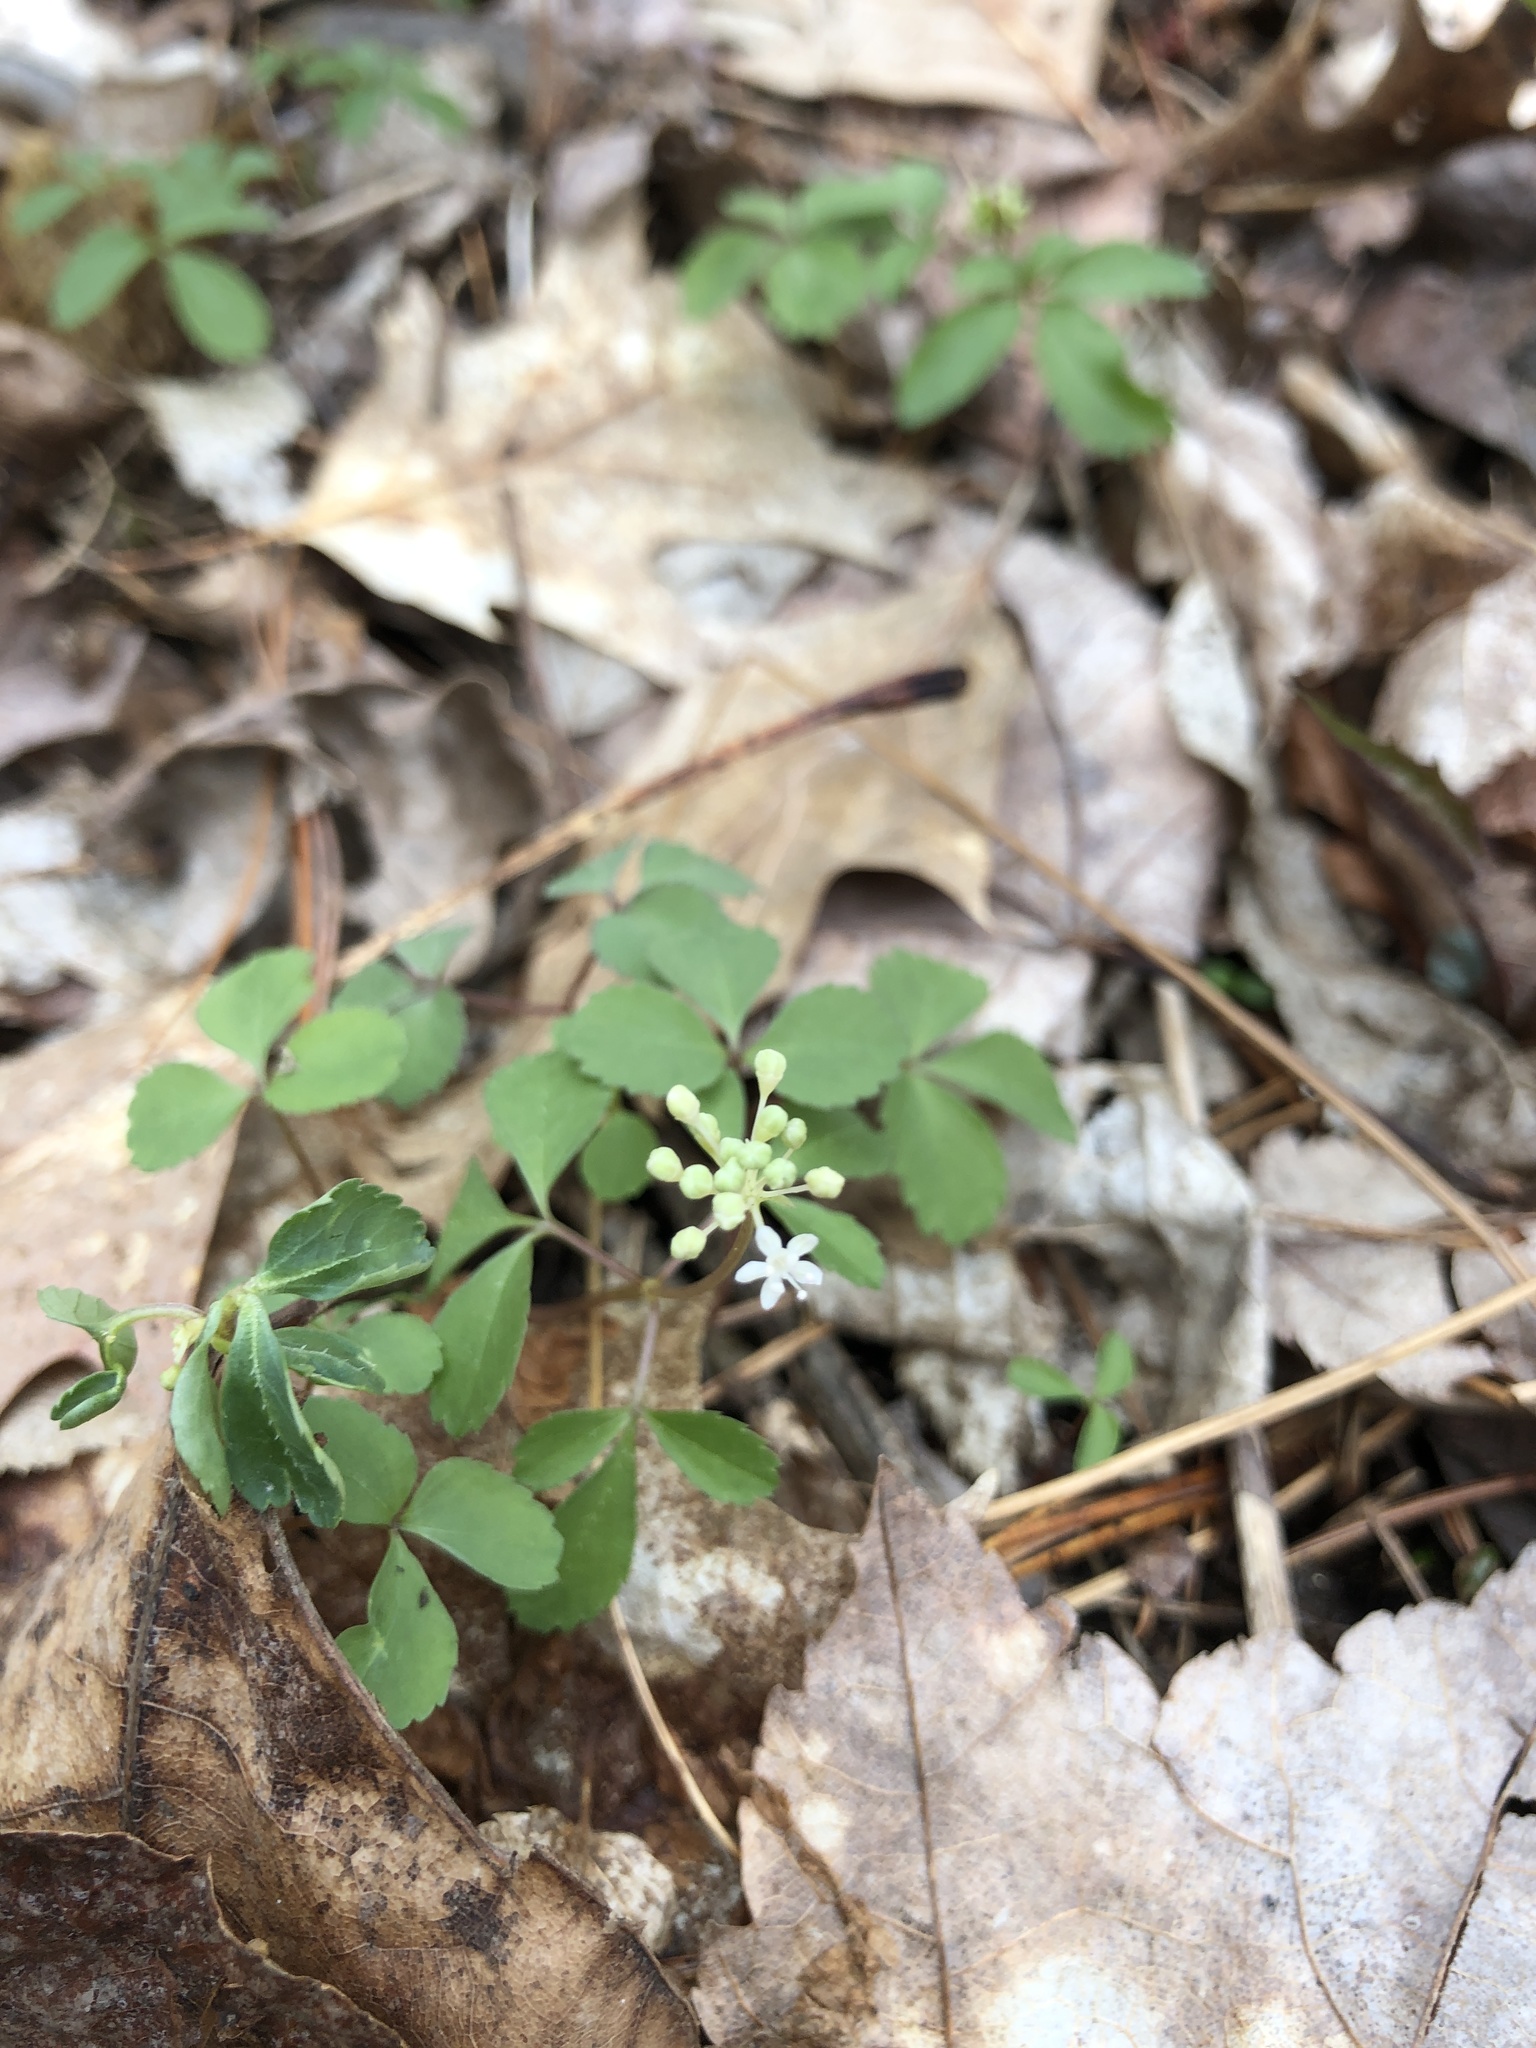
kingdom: Plantae
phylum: Tracheophyta
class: Magnoliopsida
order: Apiales
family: Araliaceae
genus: Panax
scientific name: Panax trifolius
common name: Dwarf ginseng
